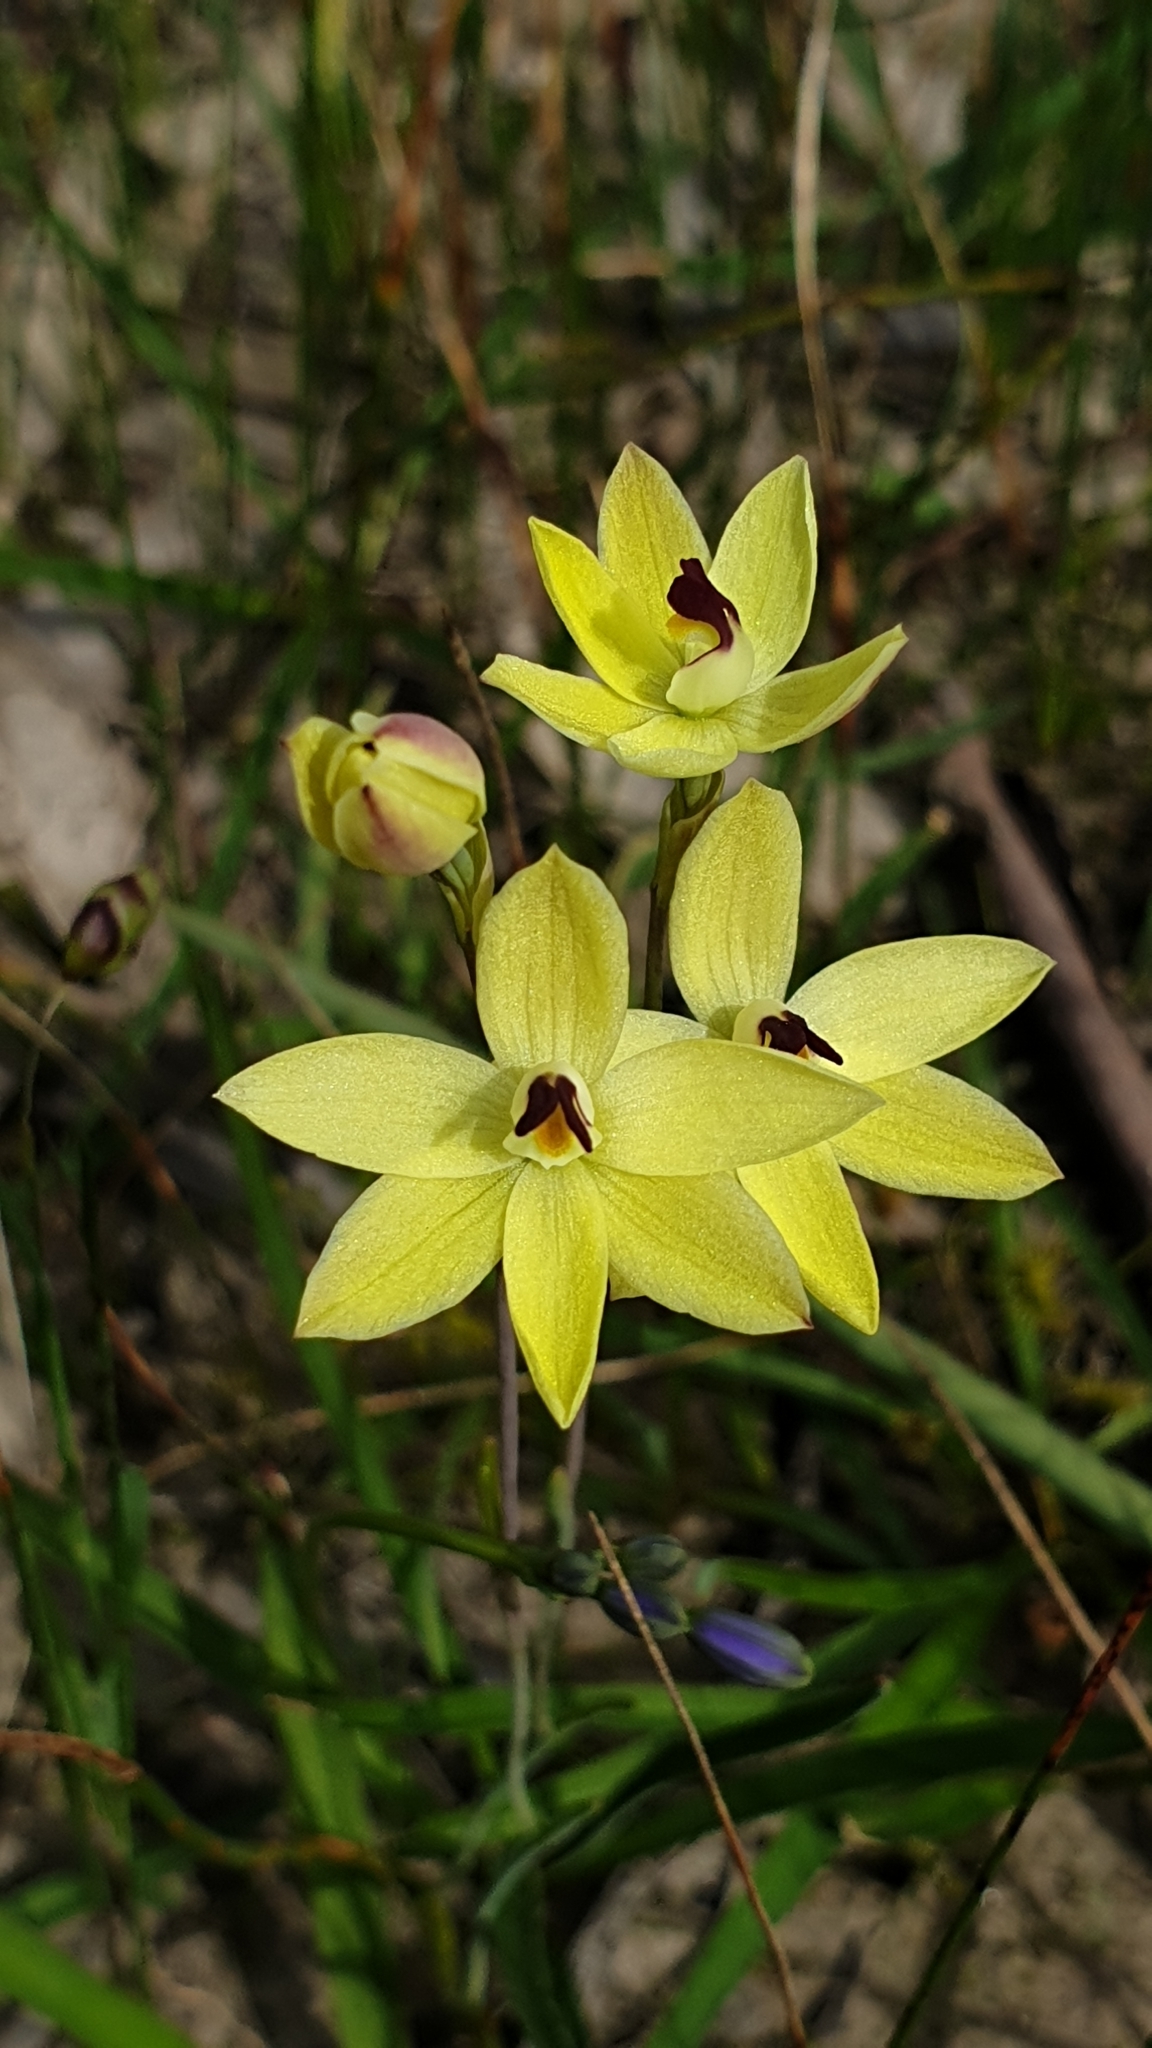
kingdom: Plantae
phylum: Tracheophyta
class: Liliopsida
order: Asparagales
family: Orchidaceae
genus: Thelymitra
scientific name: Thelymitra antennifera
